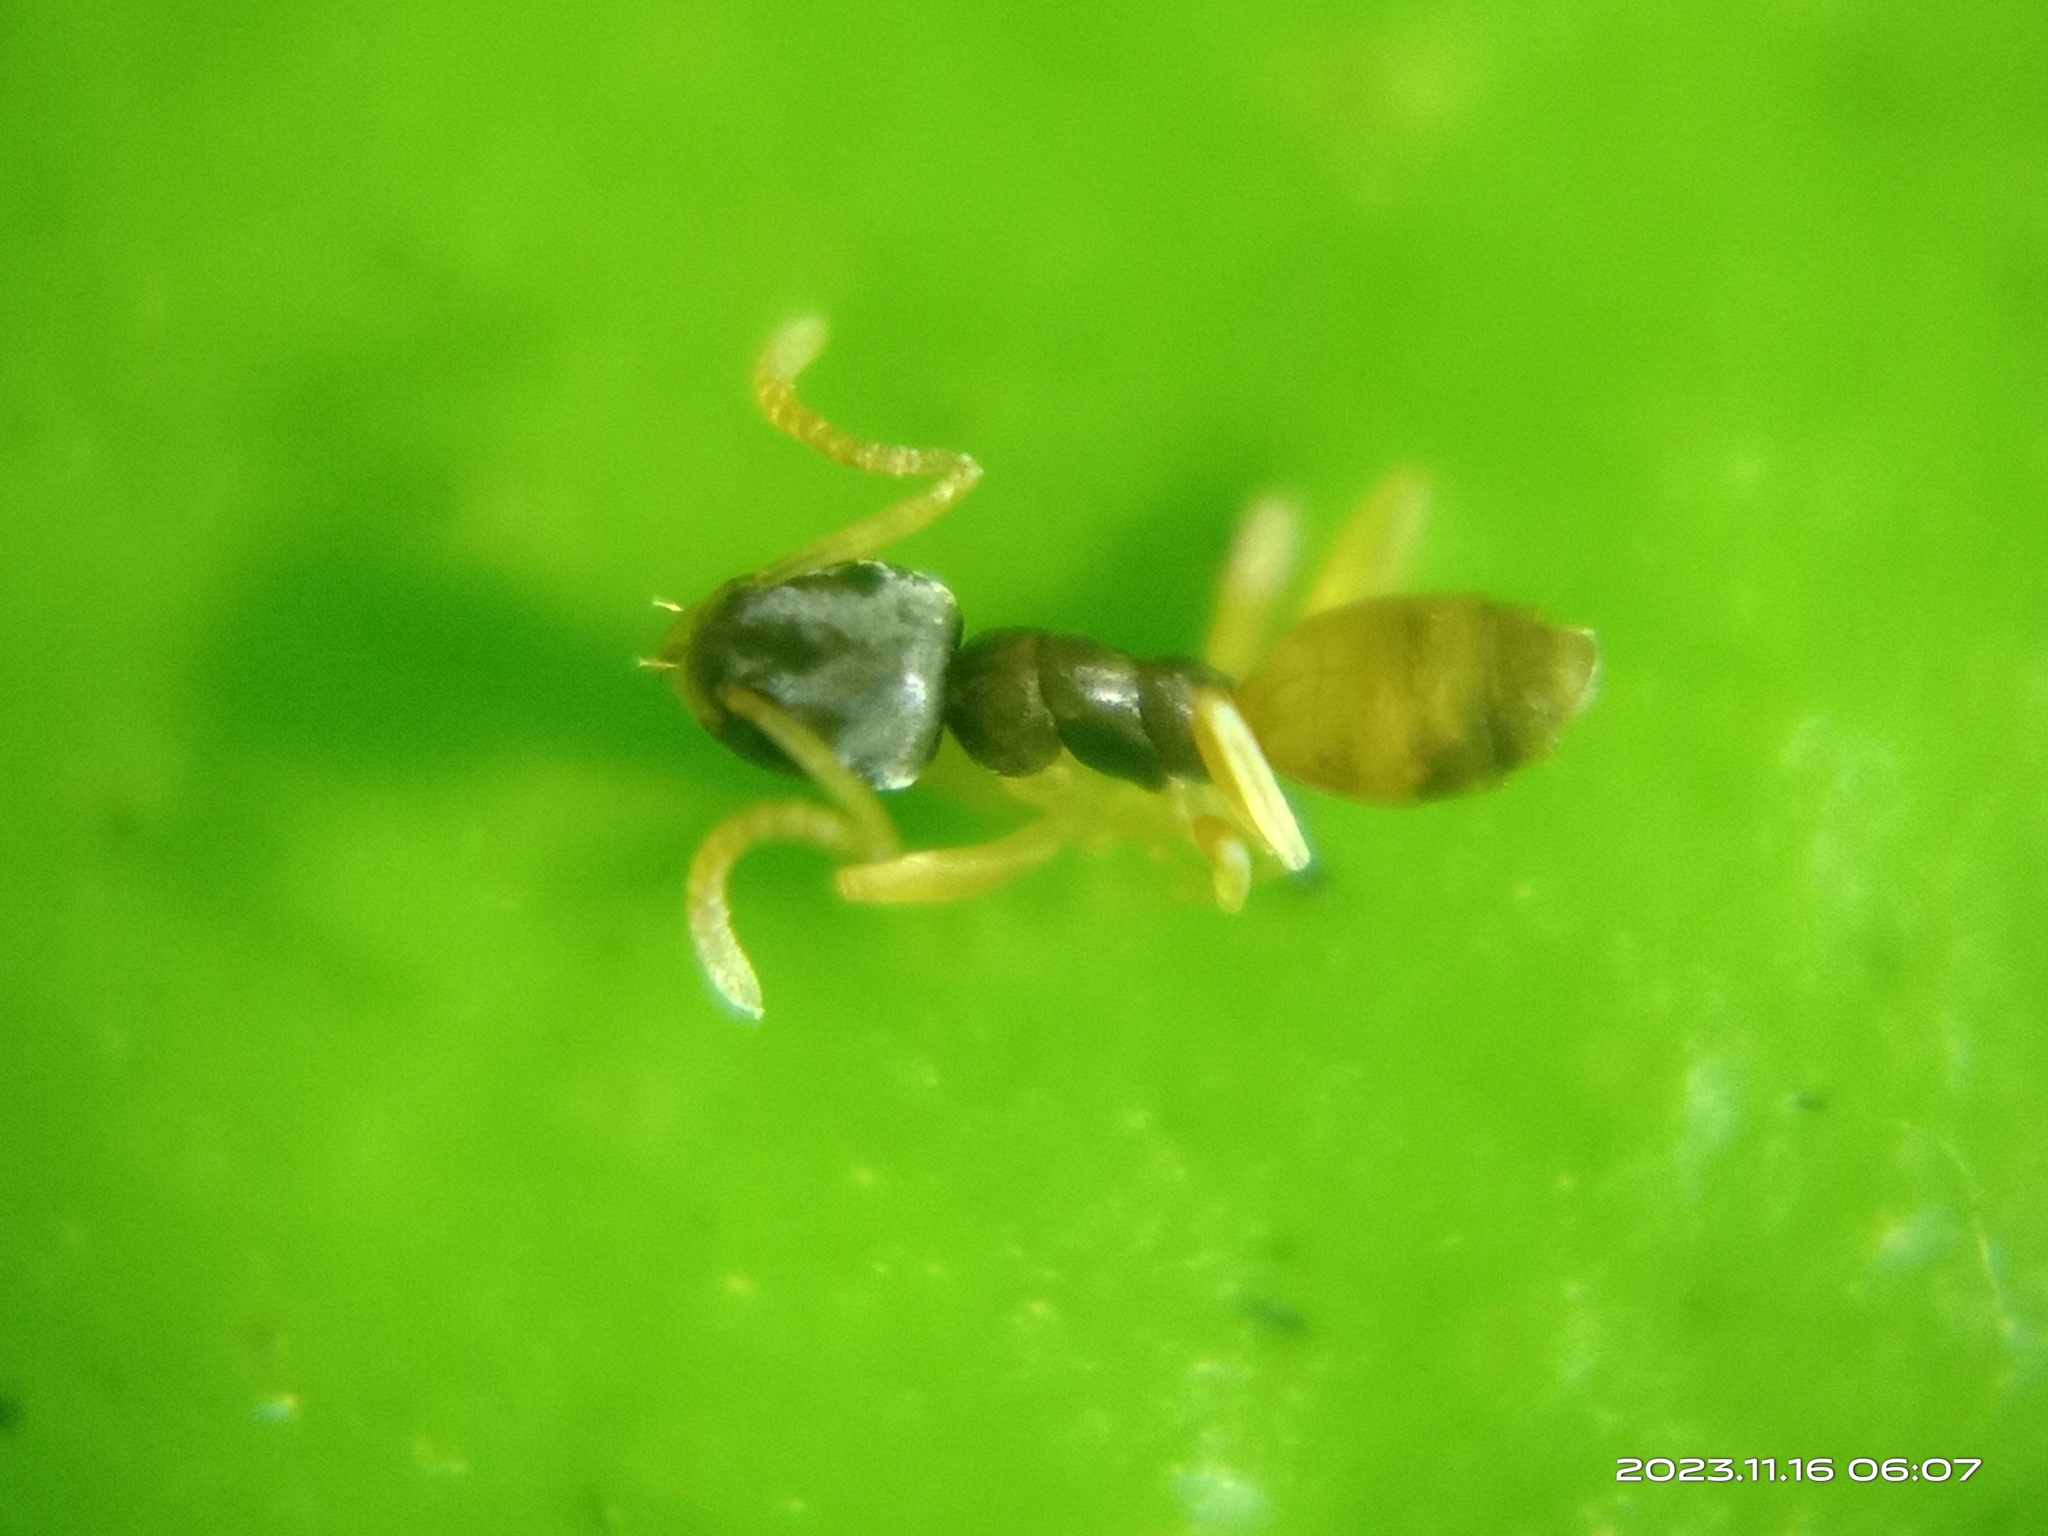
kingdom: Animalia
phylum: Arthropoda
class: Insecta
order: Hymenoptera
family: Formicidae
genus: Tapinoma
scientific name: Tapinoma melanocephalum
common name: Ghost ant
